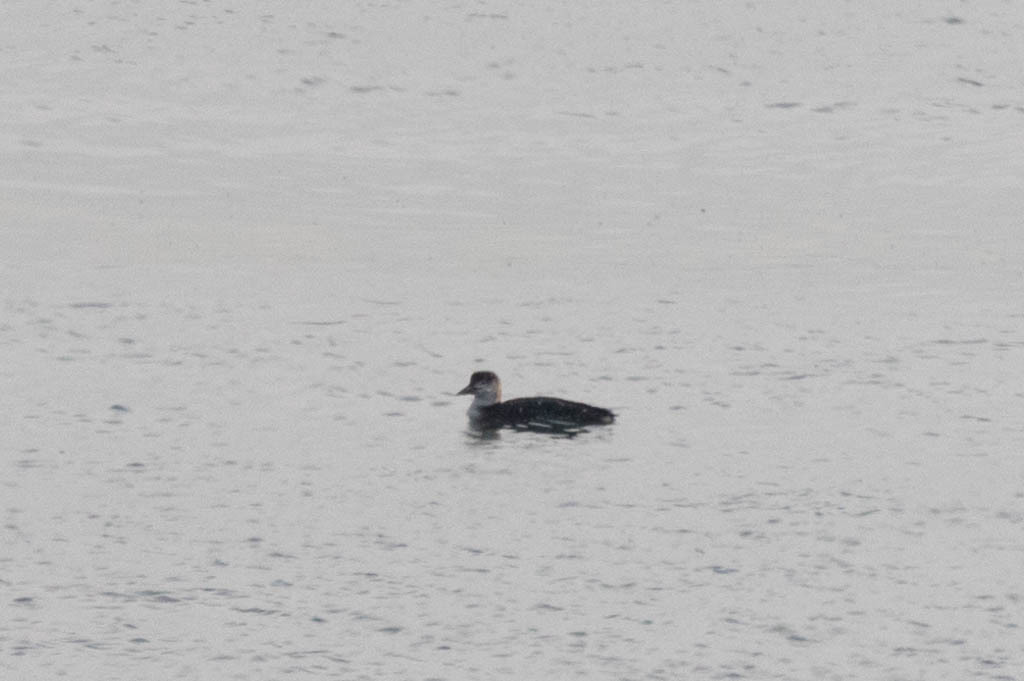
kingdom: Animalia
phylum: Chordata
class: Aves
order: Gaviiformes
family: Gaviidae
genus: Gavia
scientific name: Gavia immer
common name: Common loon
